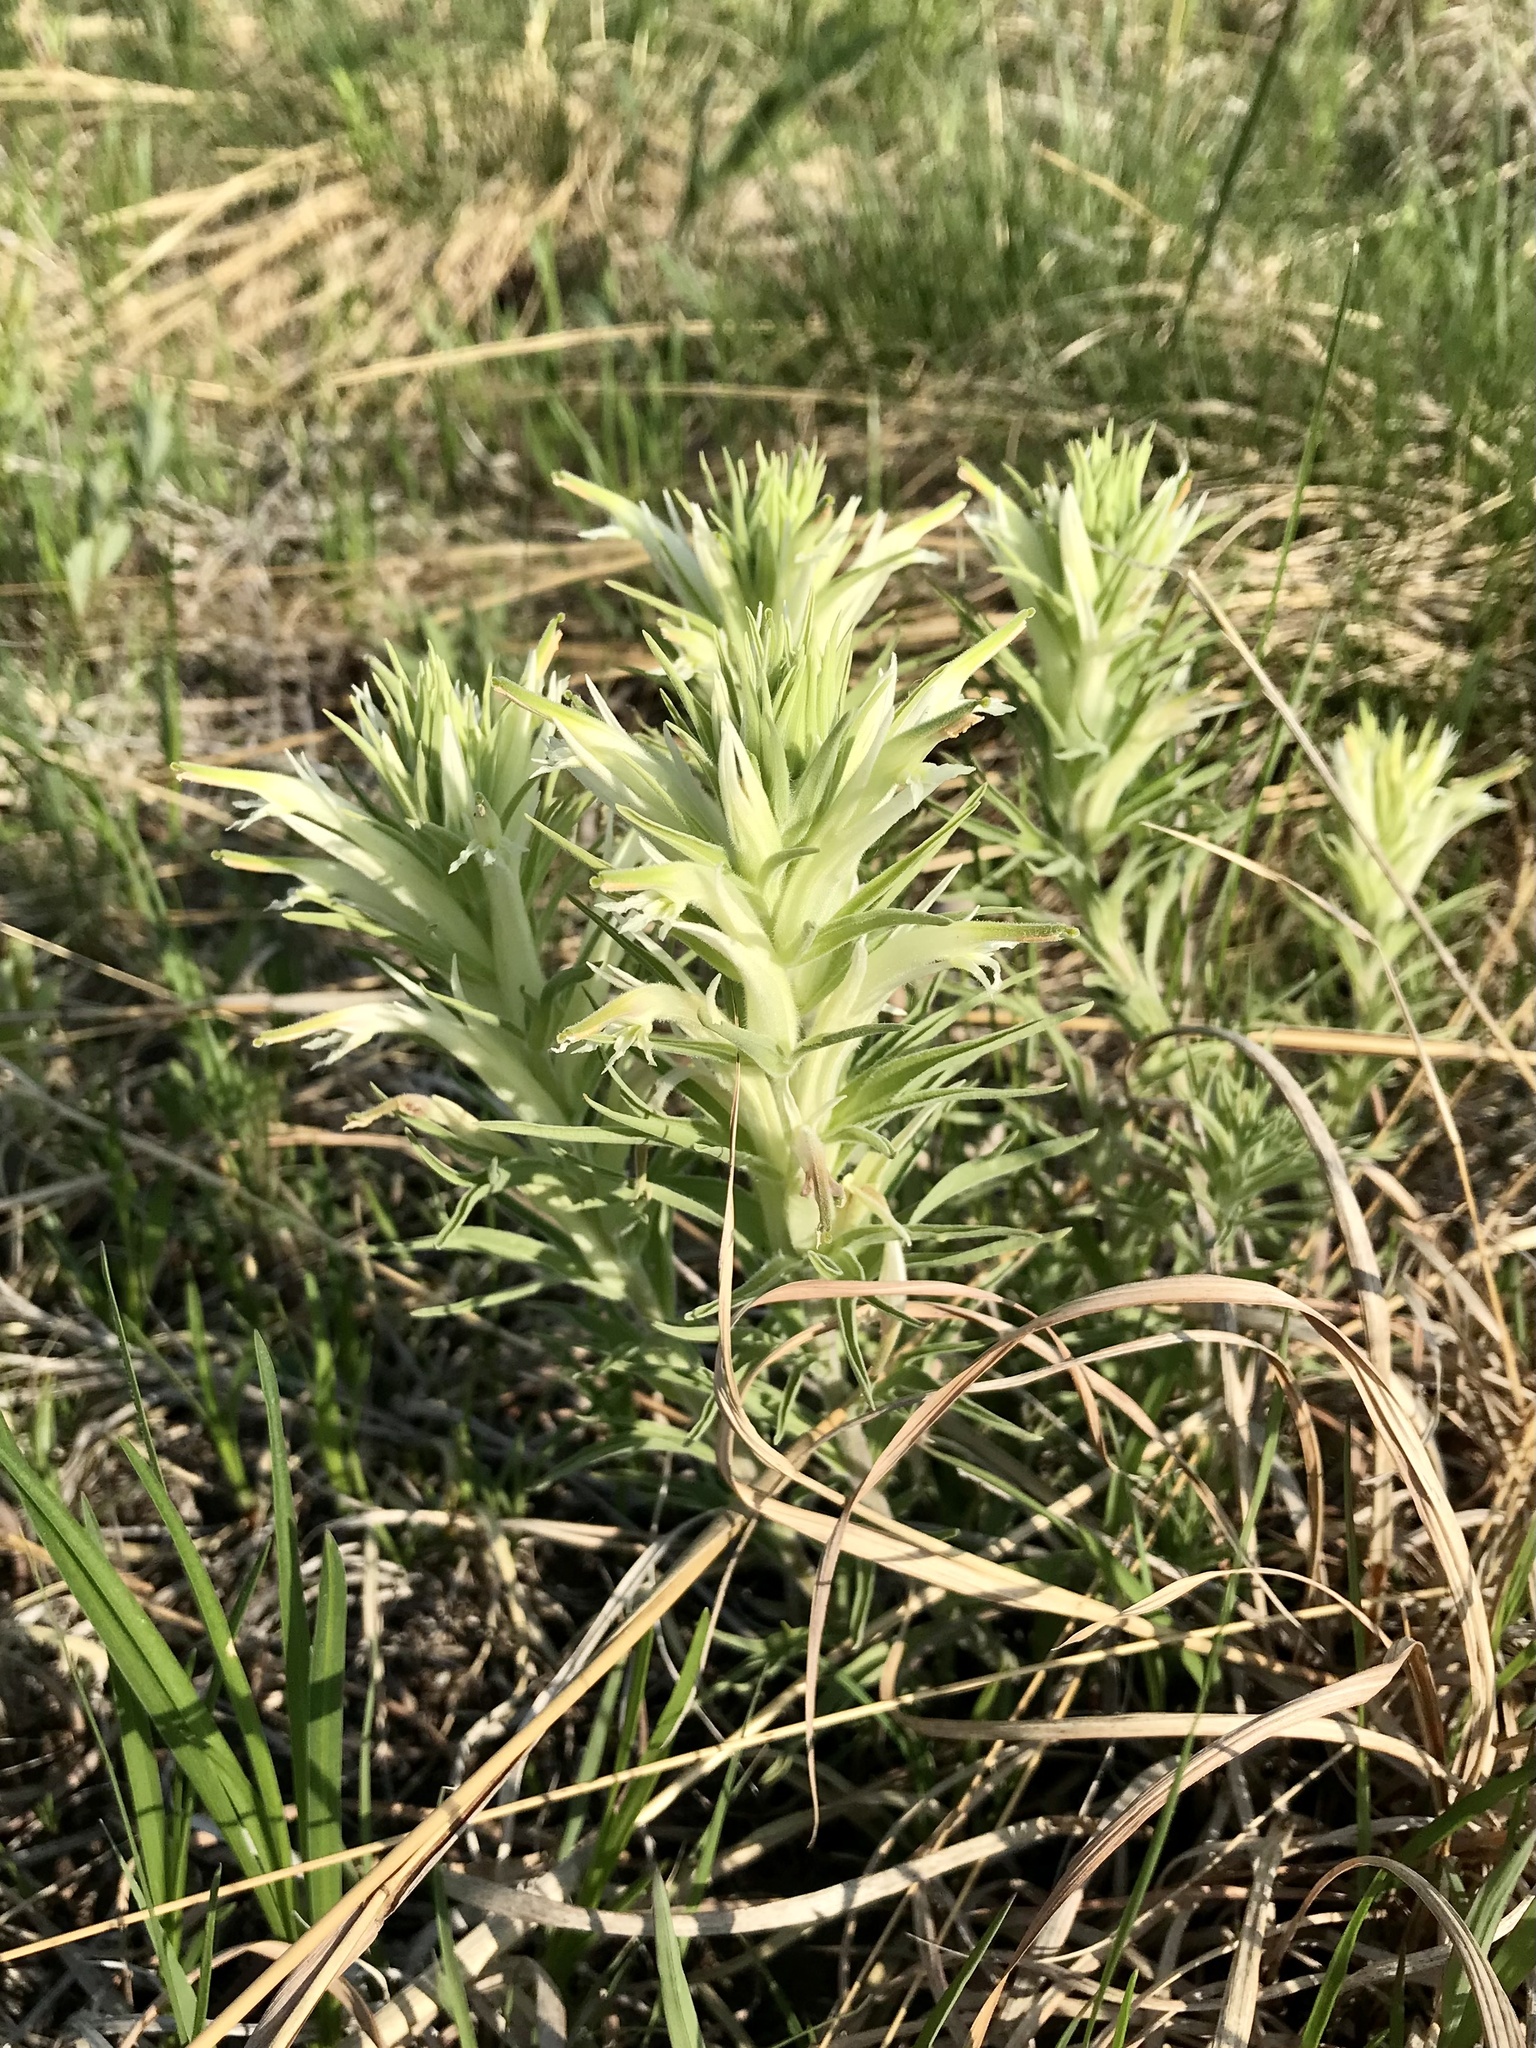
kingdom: Plantae
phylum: Tracheophyta
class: Magnoliopsida
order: Lamiales
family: Orobanchaceae
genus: Castilleja
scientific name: Castilleja sessiliflora
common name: Downy paintbrush
